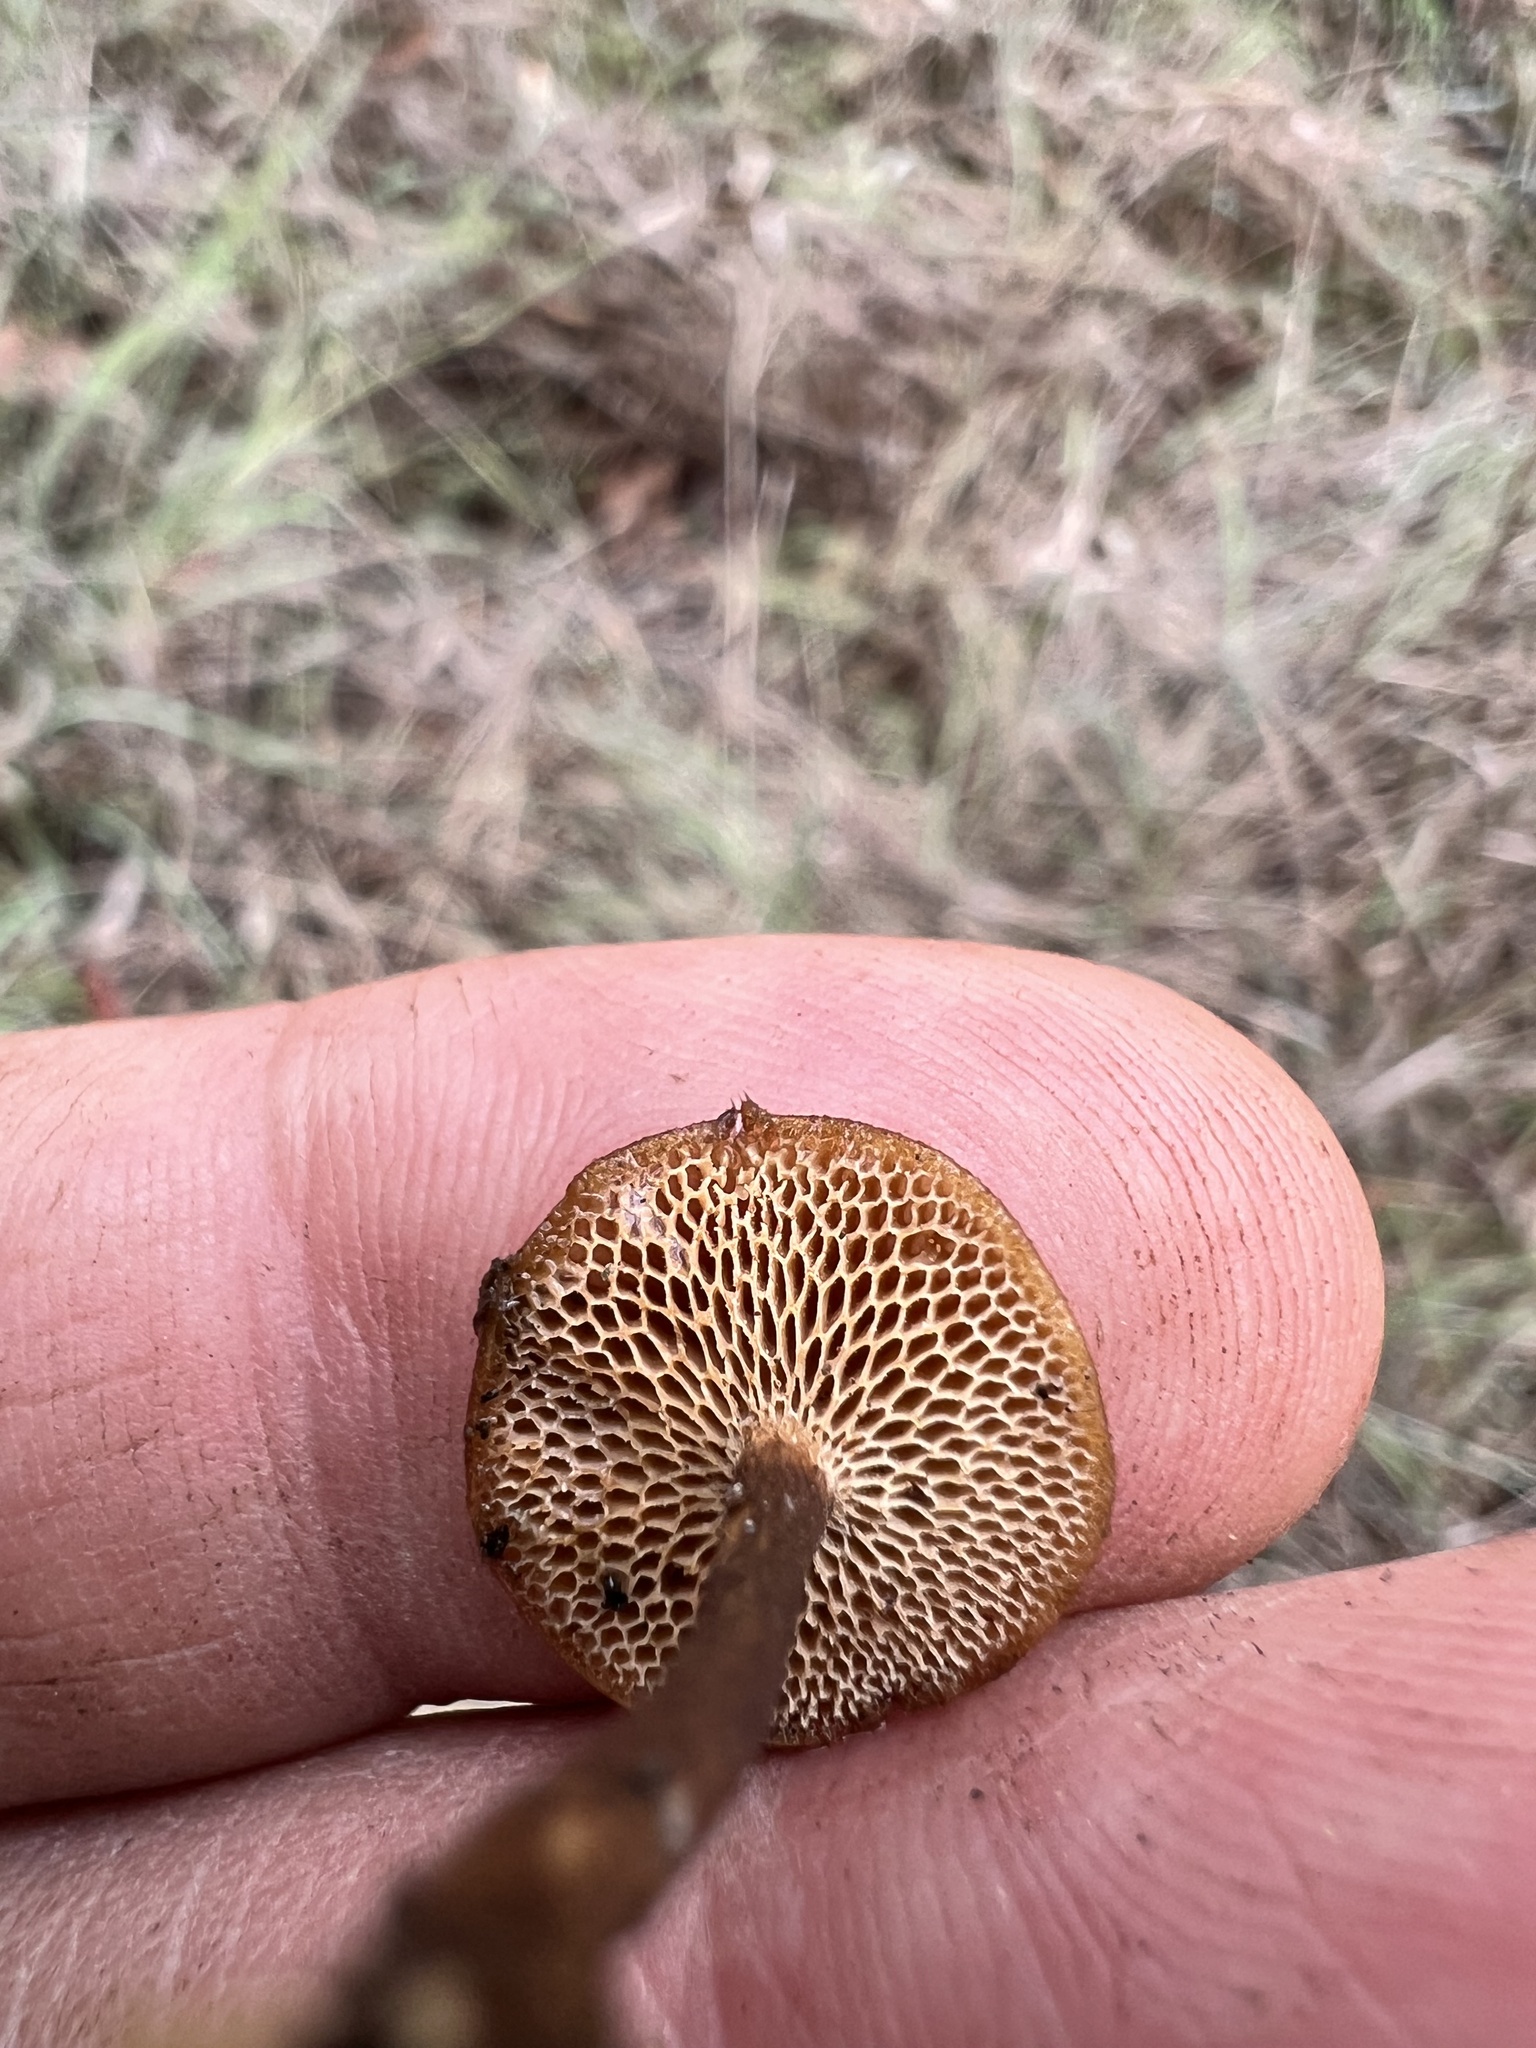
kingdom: Fungi
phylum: Basidiomycota
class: Agaricomycetes
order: Polyporales
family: Polyporaceae
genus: Lentinus
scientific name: Lentinus arcularius
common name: Spring polypore
